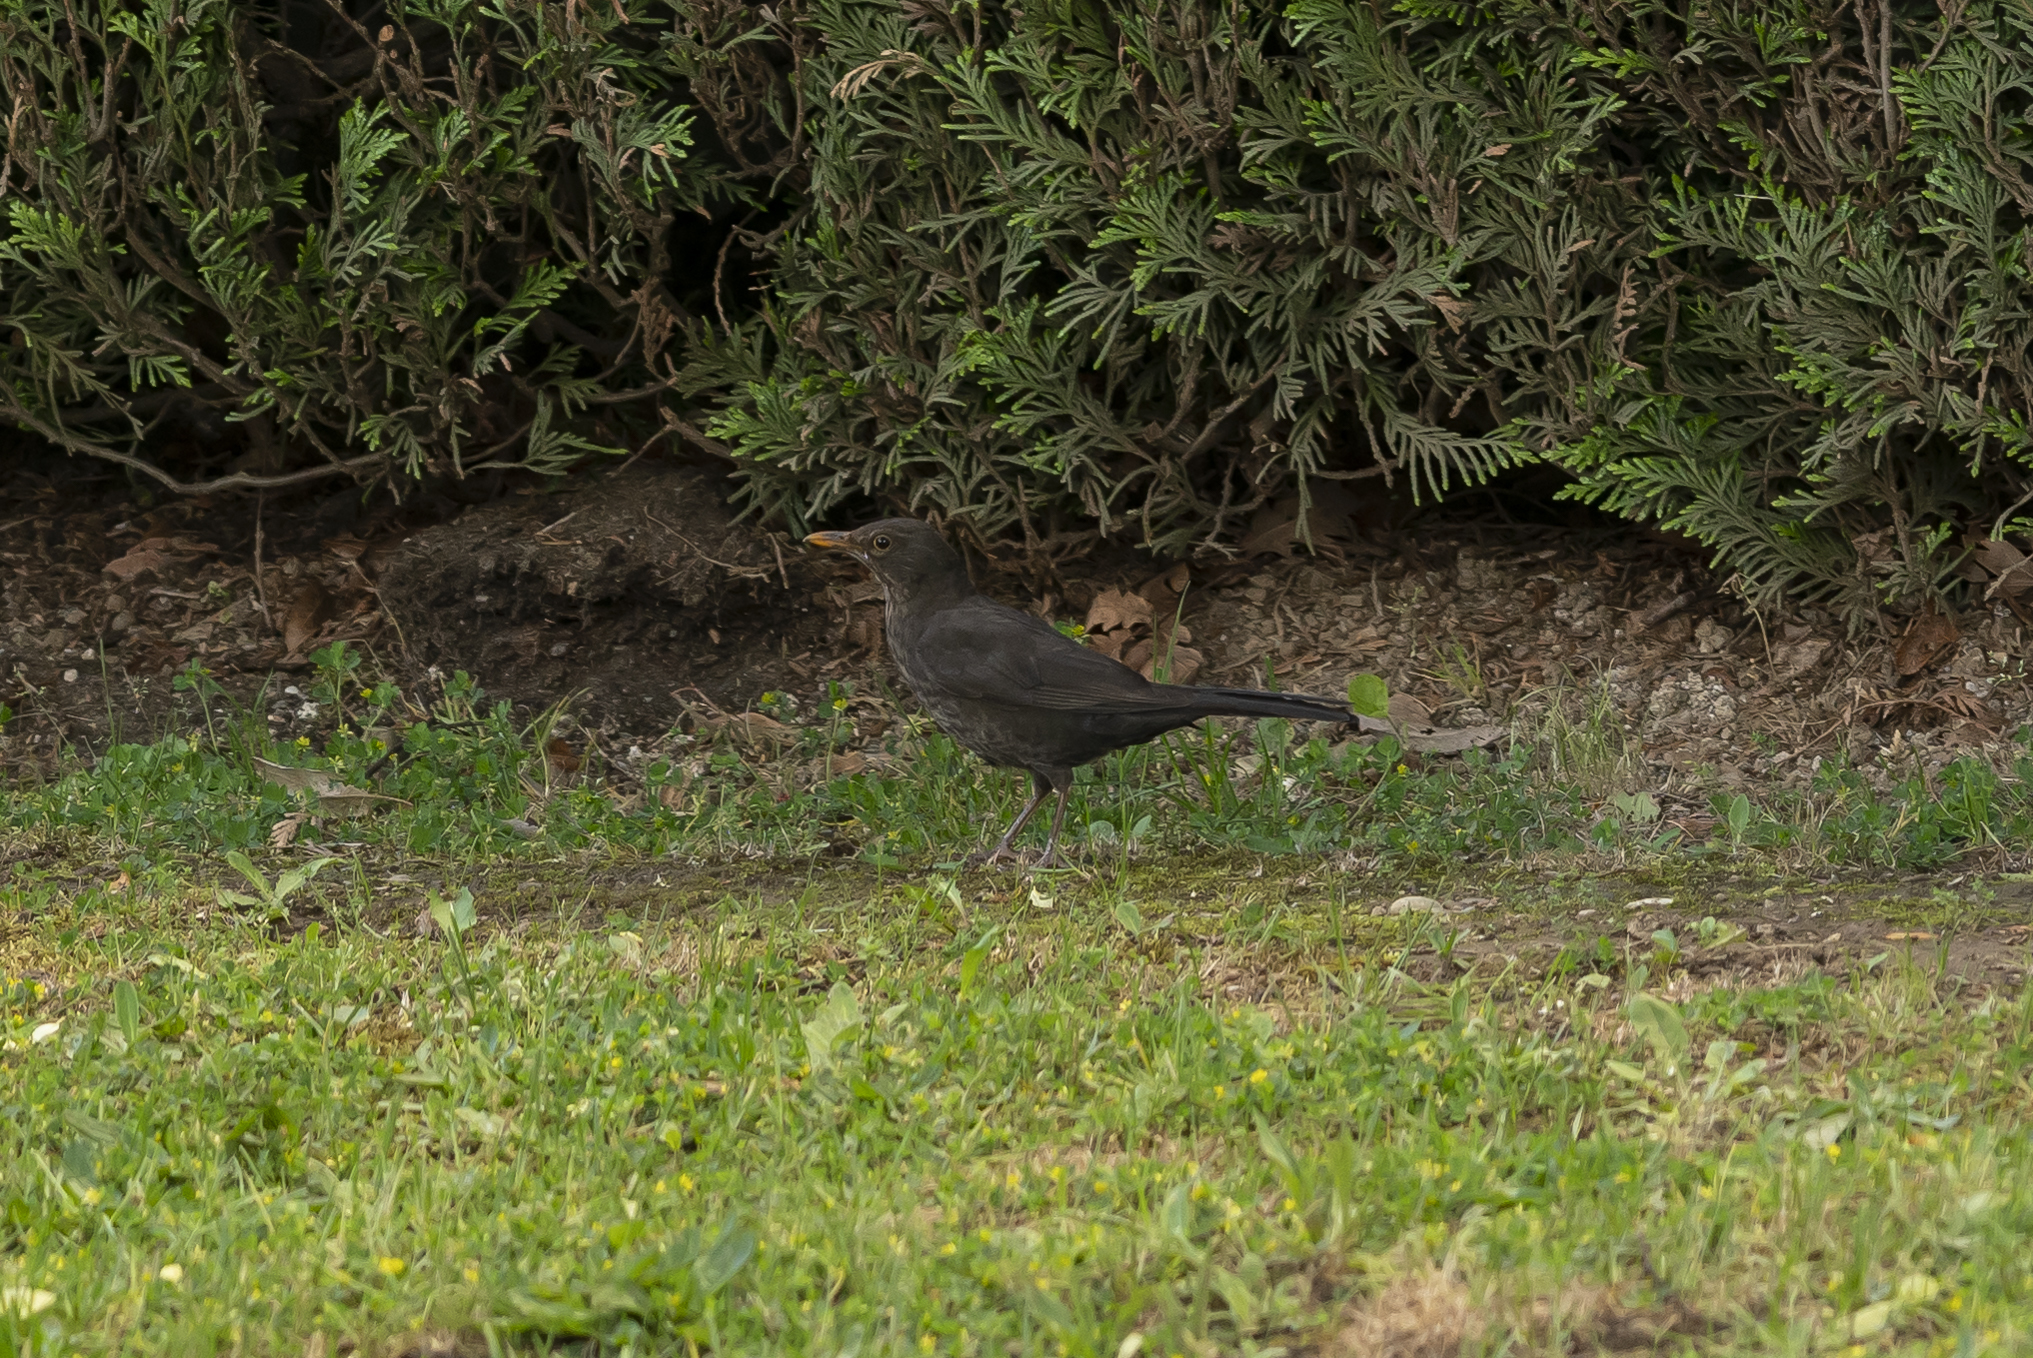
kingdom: Animalia
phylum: Chordata
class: Aves
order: Passeriformes
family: Turdidae
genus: Turdus
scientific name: Turdus merula
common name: Common blackbird
